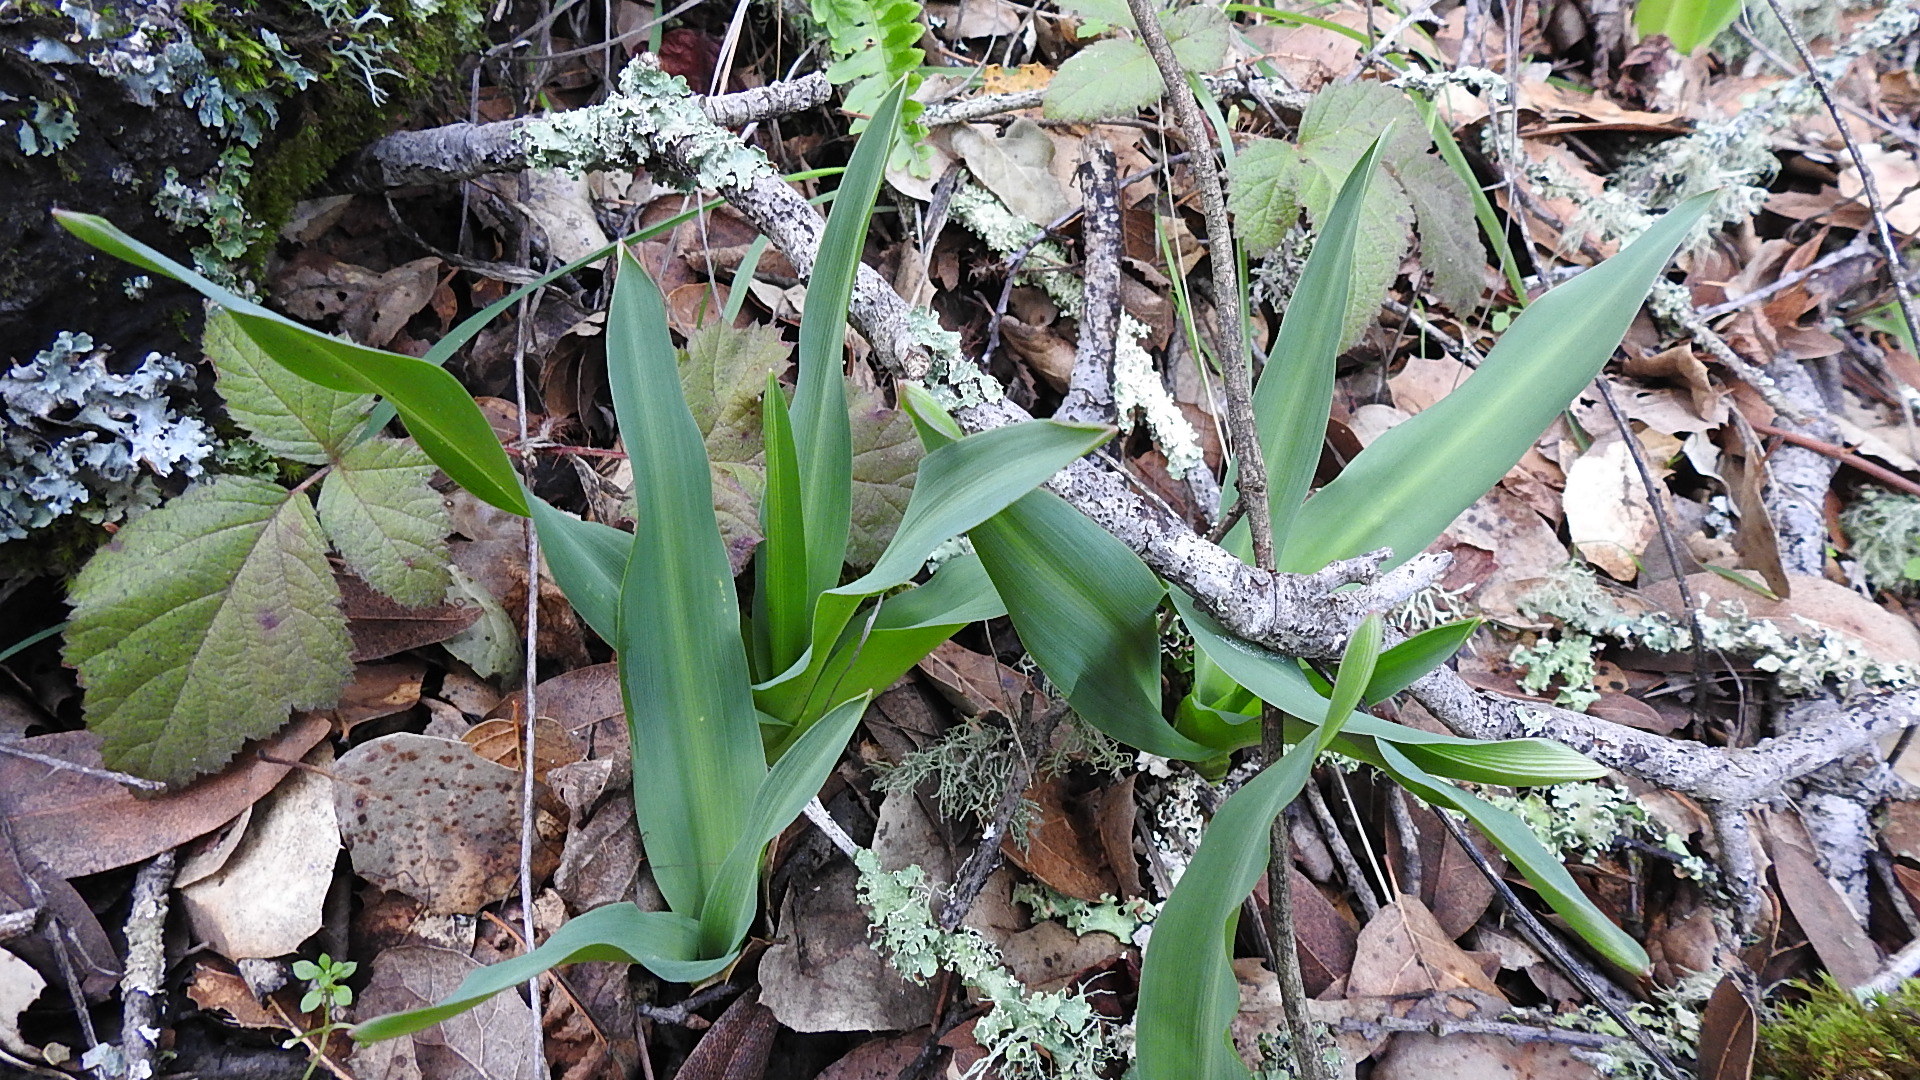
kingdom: Plantae
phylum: Tracheophyta
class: Liliopsida
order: Asparagales
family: Asparagaceae
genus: Chlorogalum
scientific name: Chlorogalum pomeridianum
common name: Amole
